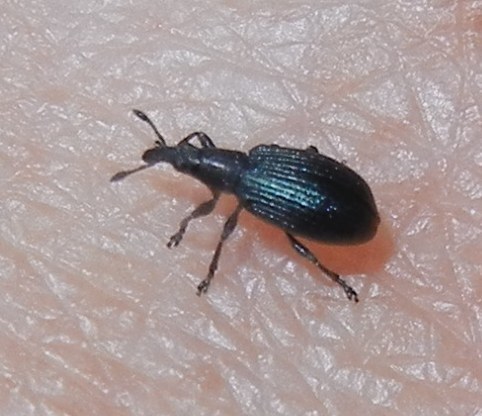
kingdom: Animalia
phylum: Arthropoda
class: Insecta
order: Coleoptera
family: Brentidae
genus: Perapion
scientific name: Perapion hydrolapathi
